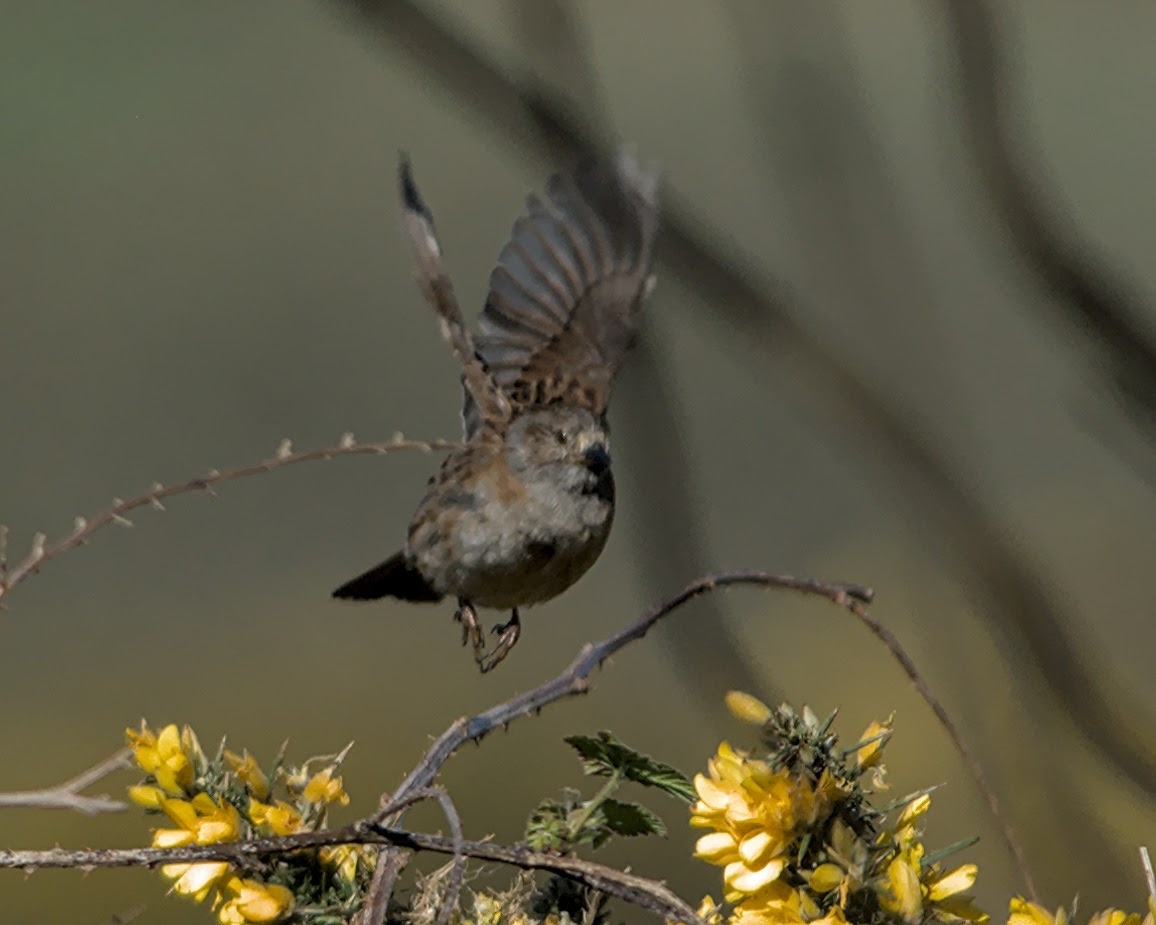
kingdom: Animalia
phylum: Chordata
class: Aves
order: Passeriformes
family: Prunellidae
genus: Prunella
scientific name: Prunella modularis
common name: Dunnock
